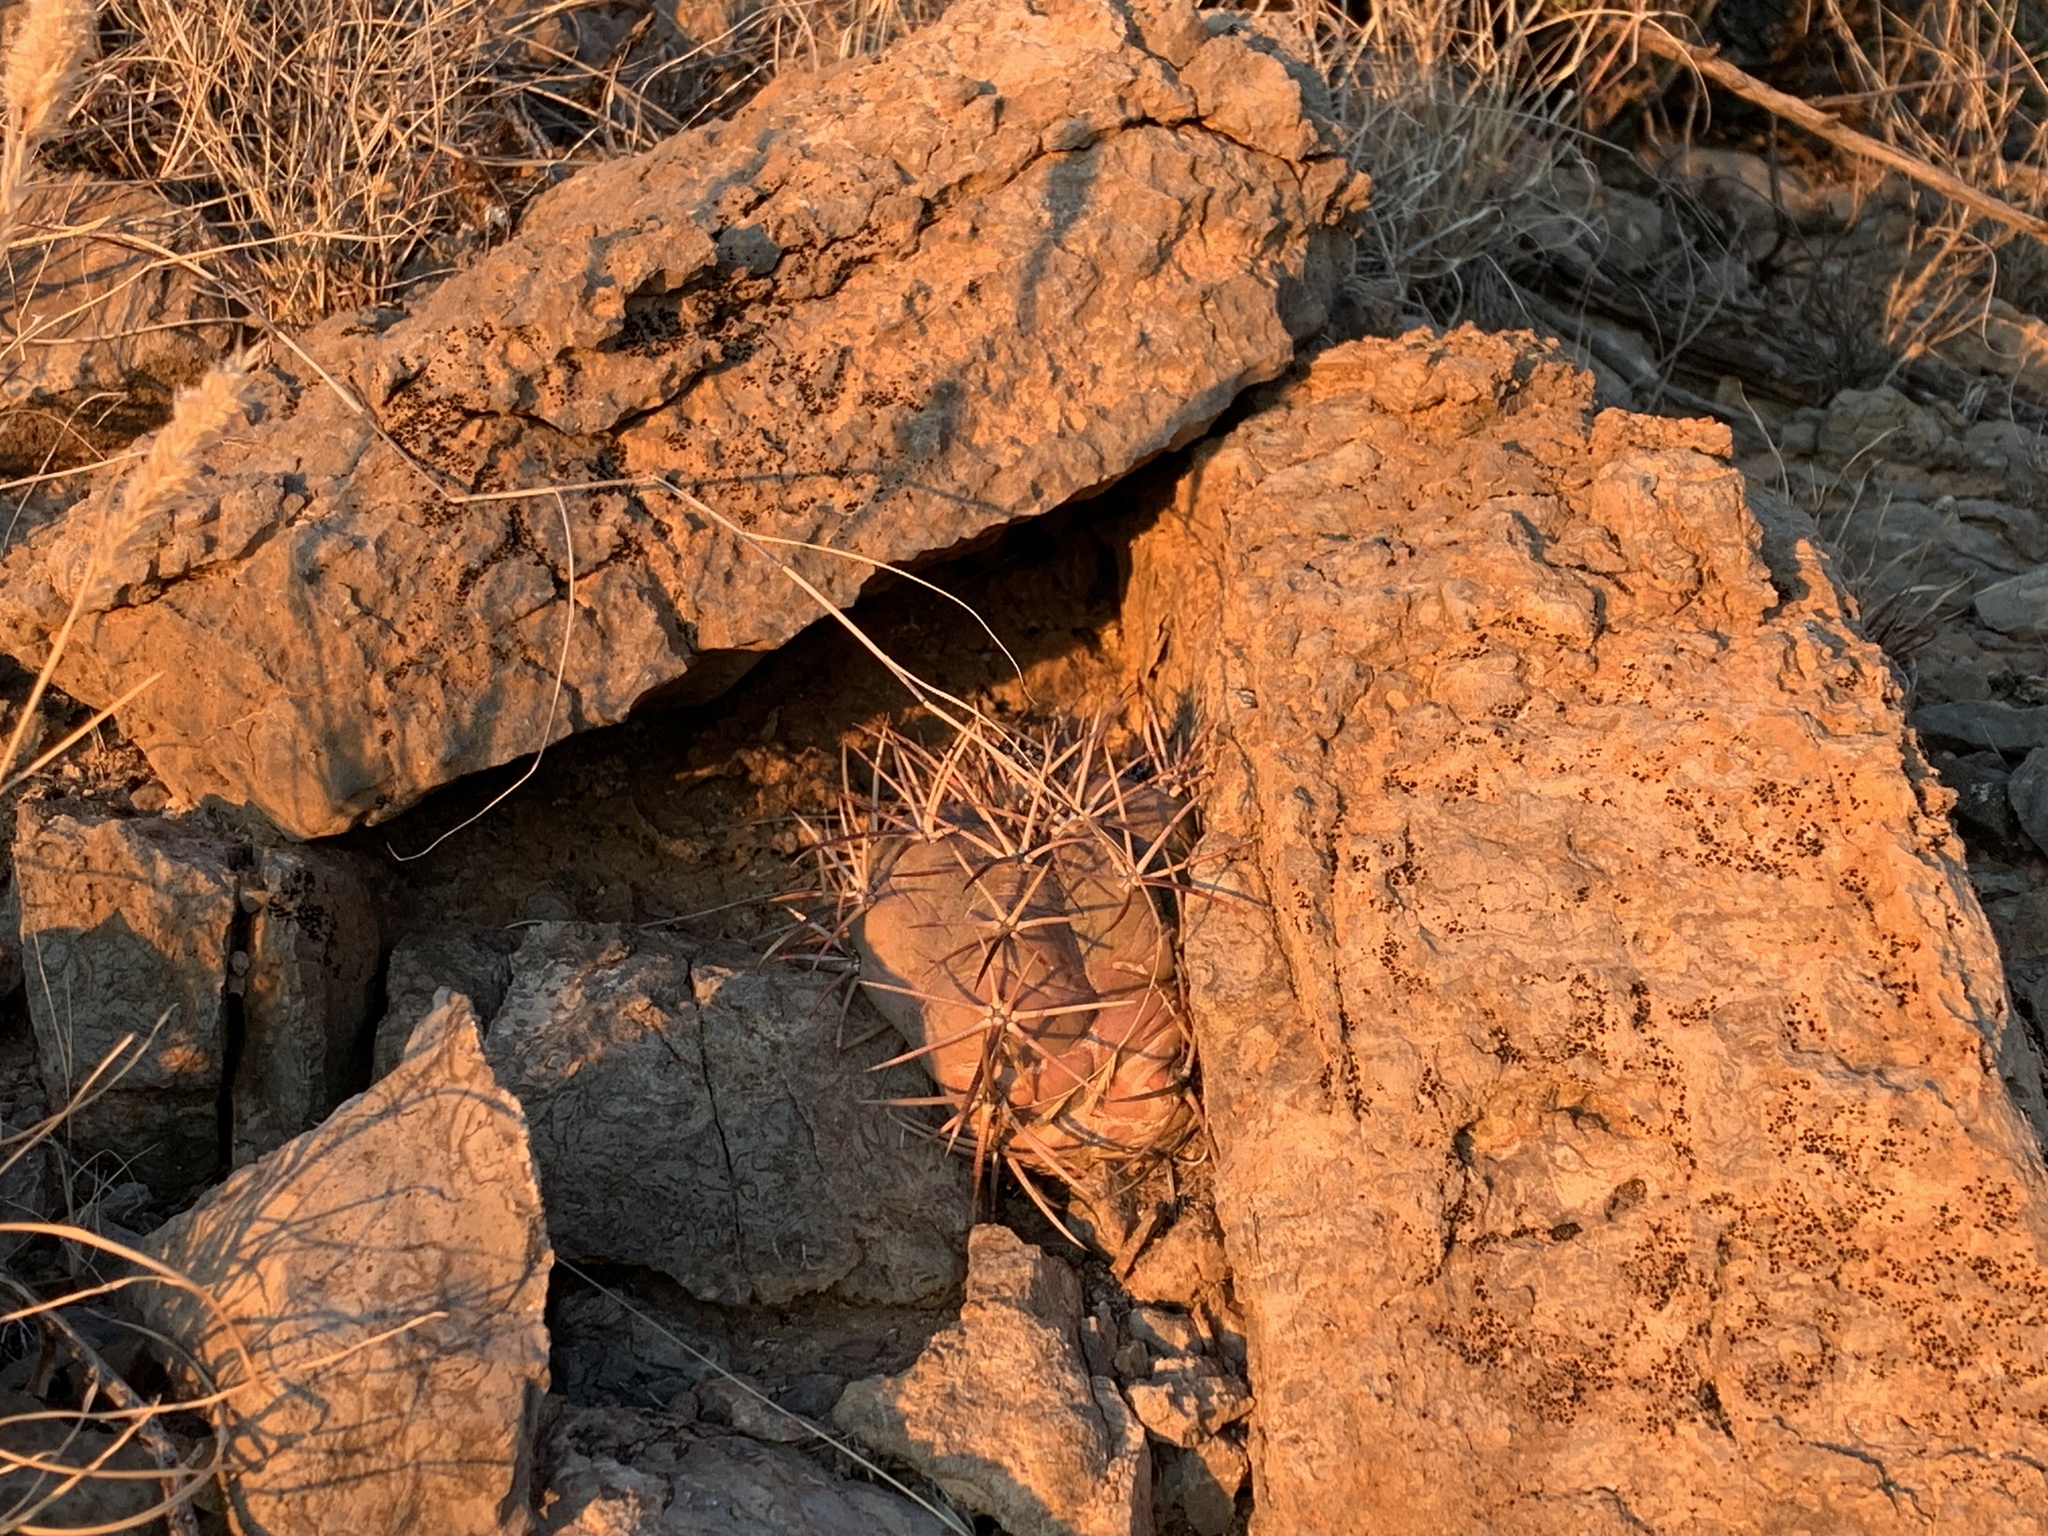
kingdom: Plantae
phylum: Tracheophyta
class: Magnoliopsida
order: Caryophyllales
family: Cactaceae
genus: Echinocactus
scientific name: Echinocactus horizonthalonius
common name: Devilshead
